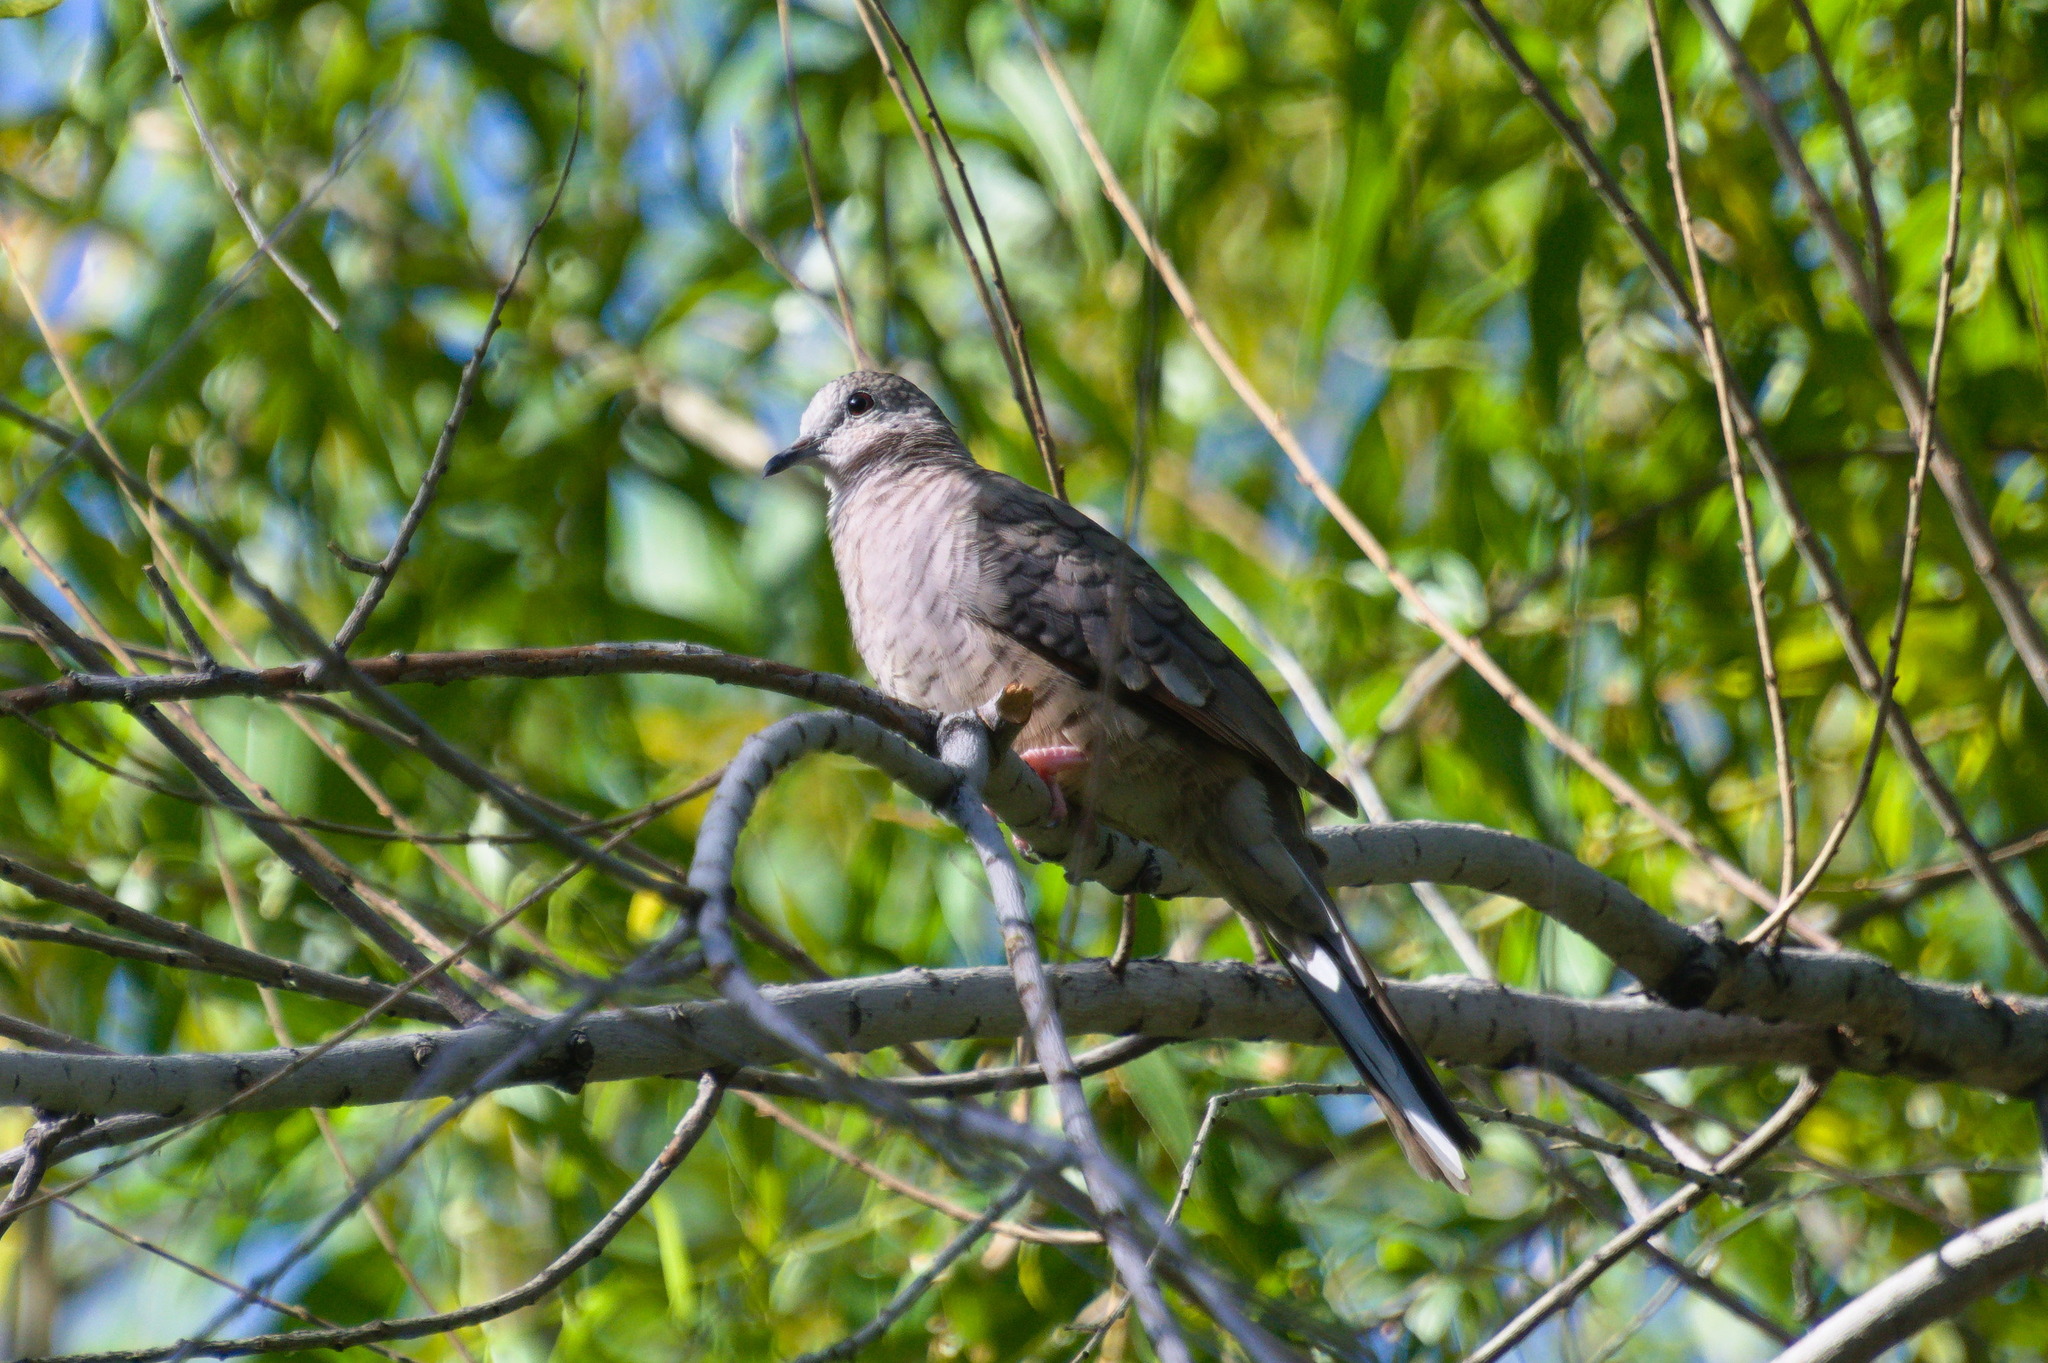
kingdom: Animalia
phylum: Chordata
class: Aves
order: Columbiformes
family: Columbidae
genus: Columbina
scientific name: Columbina inca
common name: Inca dove
